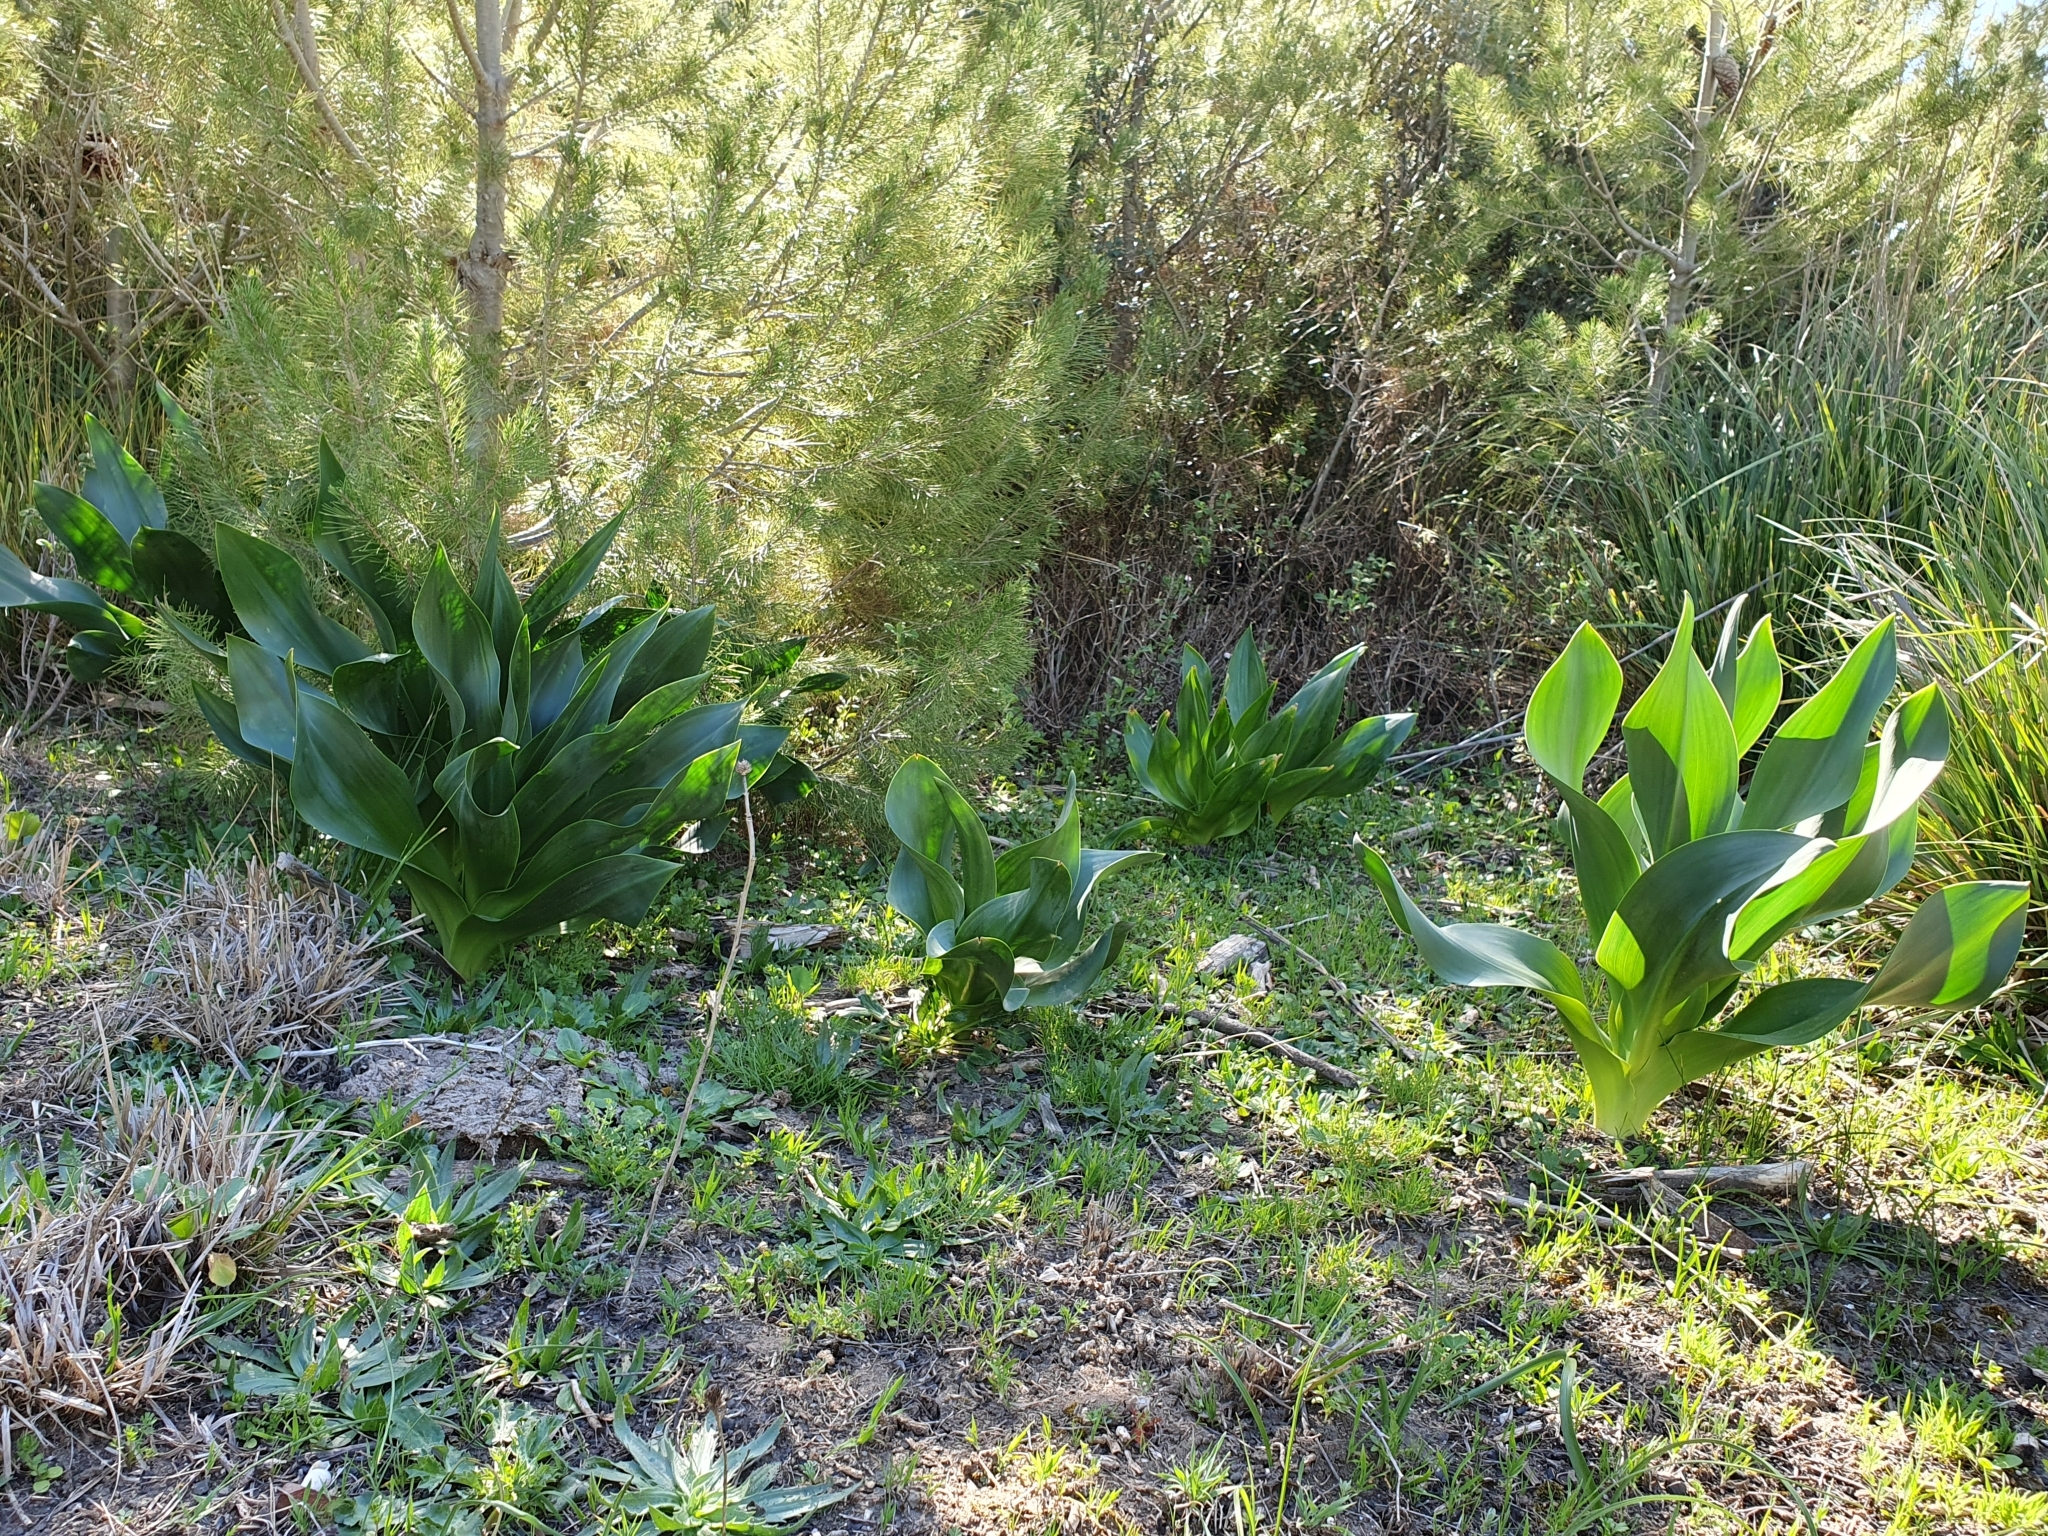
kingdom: Plantae
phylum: Tracheophyta
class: Liliopsida
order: Asparagales
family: Asparagaceae
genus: Drimia
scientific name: Drimia numidica
